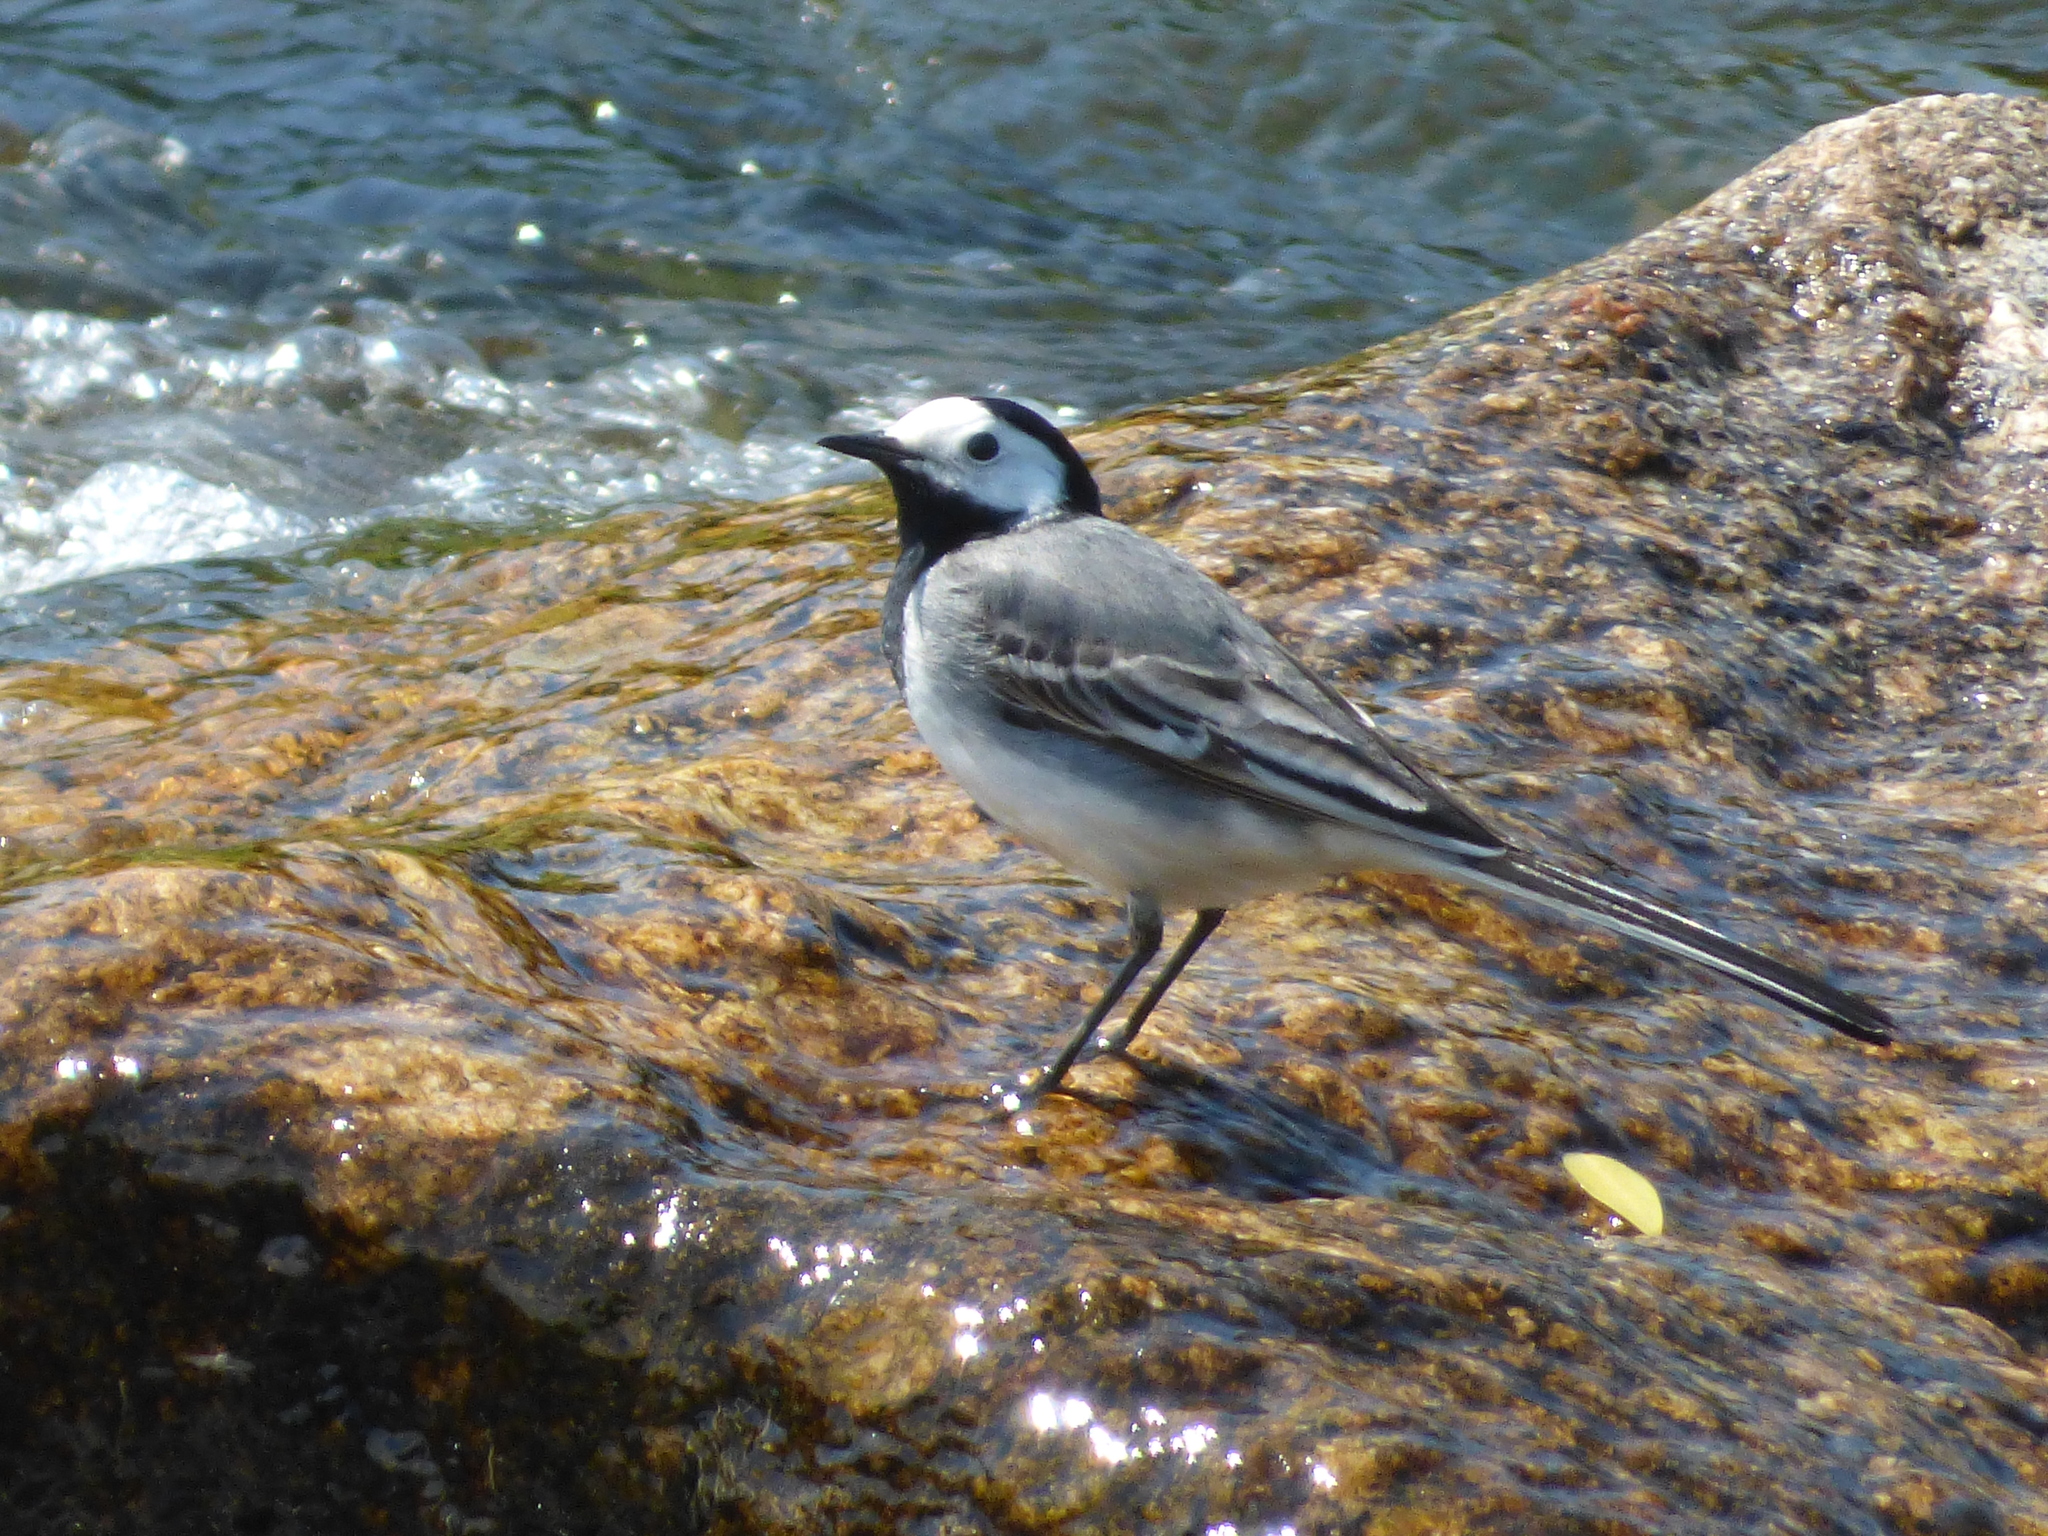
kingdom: Animalia
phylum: Chordata
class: Aves
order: Passeriformes
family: Motacillidae
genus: Motacilla
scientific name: Motacilla alba
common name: White wagtail
